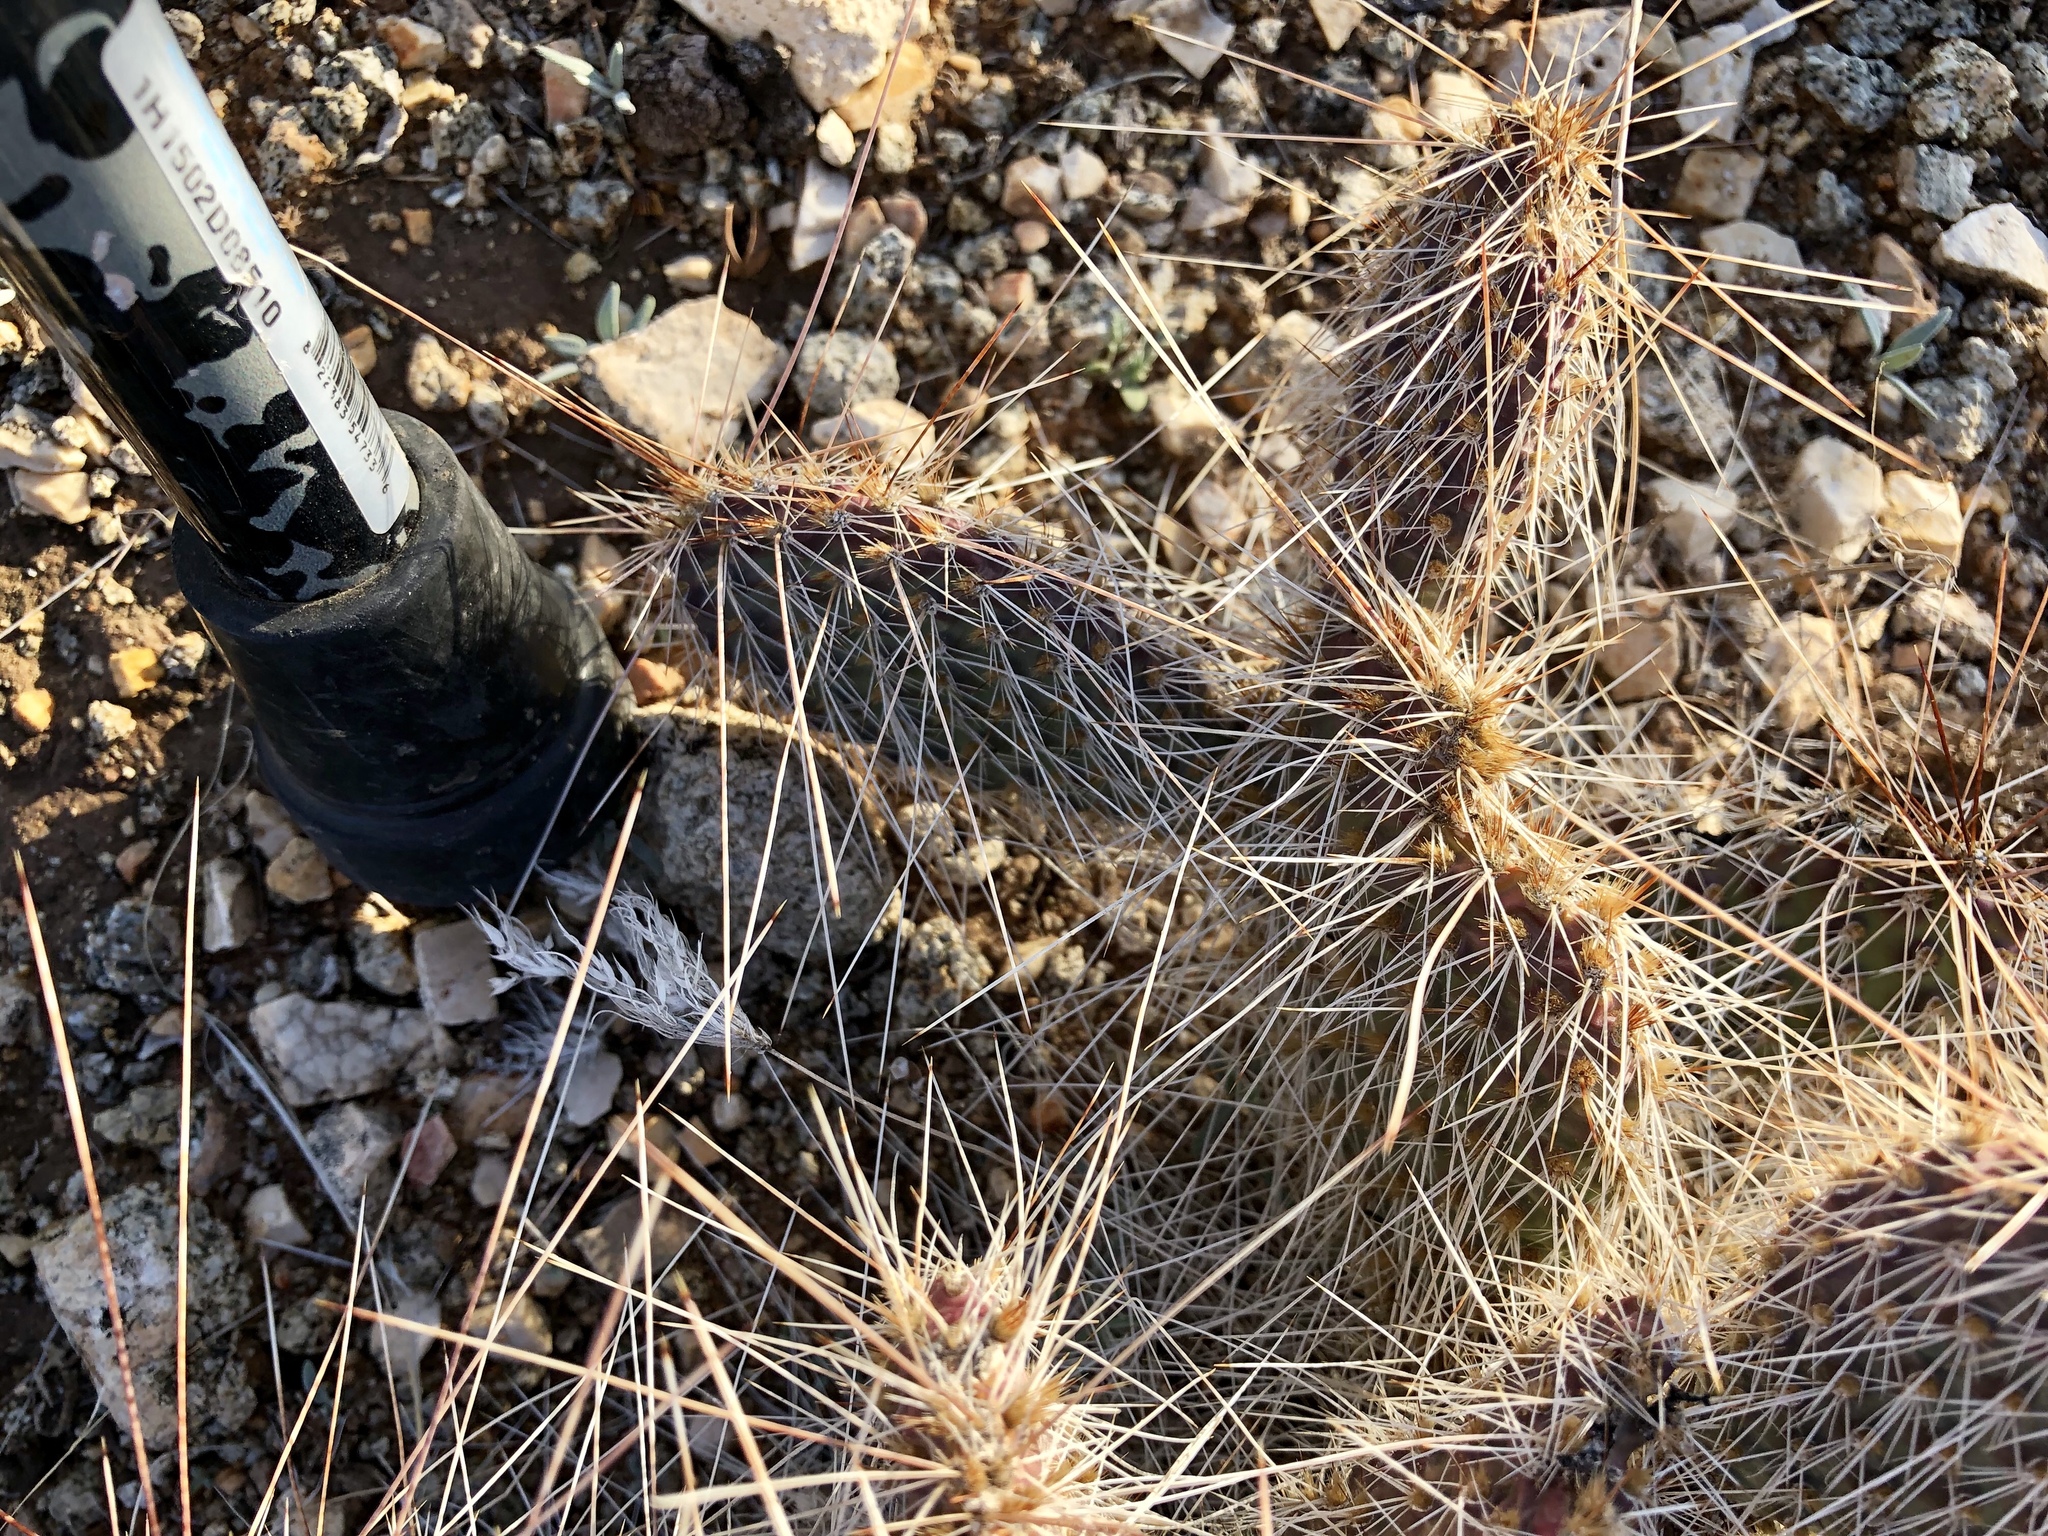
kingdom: Plantae
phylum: Tracheophyta
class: Magnoliopsida
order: Caryophyllales
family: Cactaceae
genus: Opuntia
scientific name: Opuntia polyacantha
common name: Plains prickly-pear
